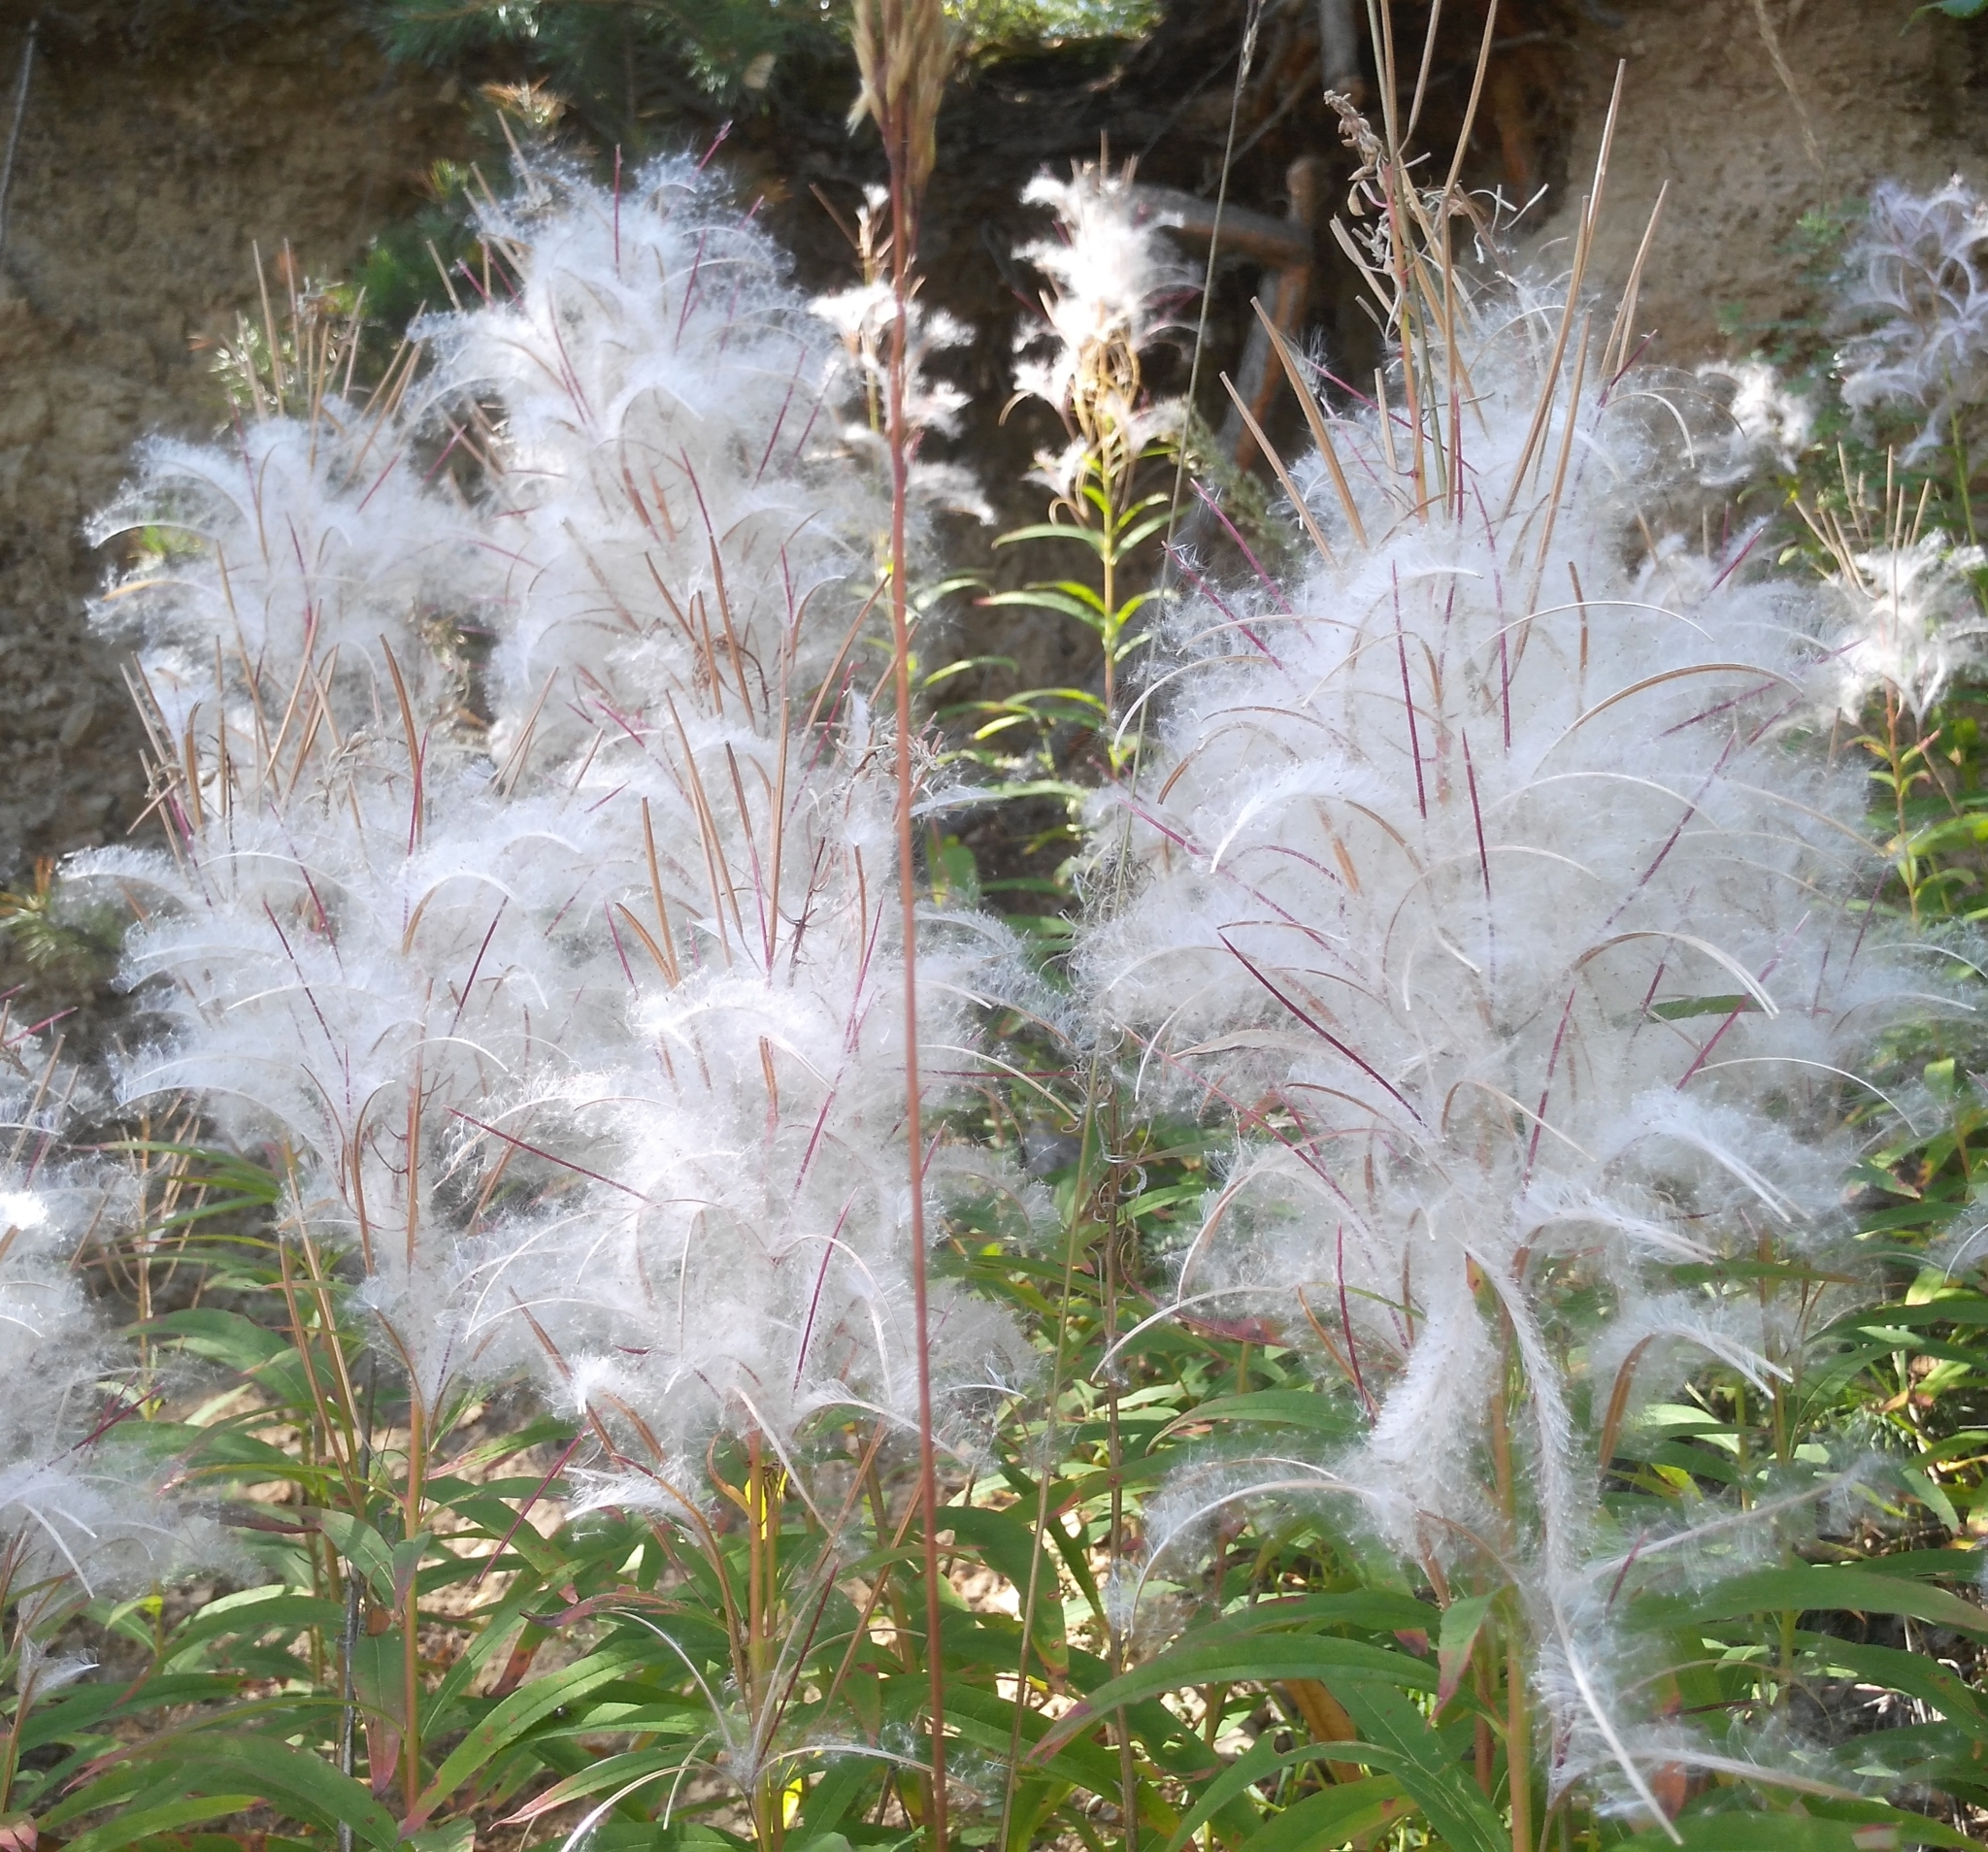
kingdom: Plantae
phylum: Tracheophyta
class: Magnoliopsida
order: Myrtales
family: Onagraceae
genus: Chamaenerion
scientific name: Chamaenerion angustifolium
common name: Fireweed
